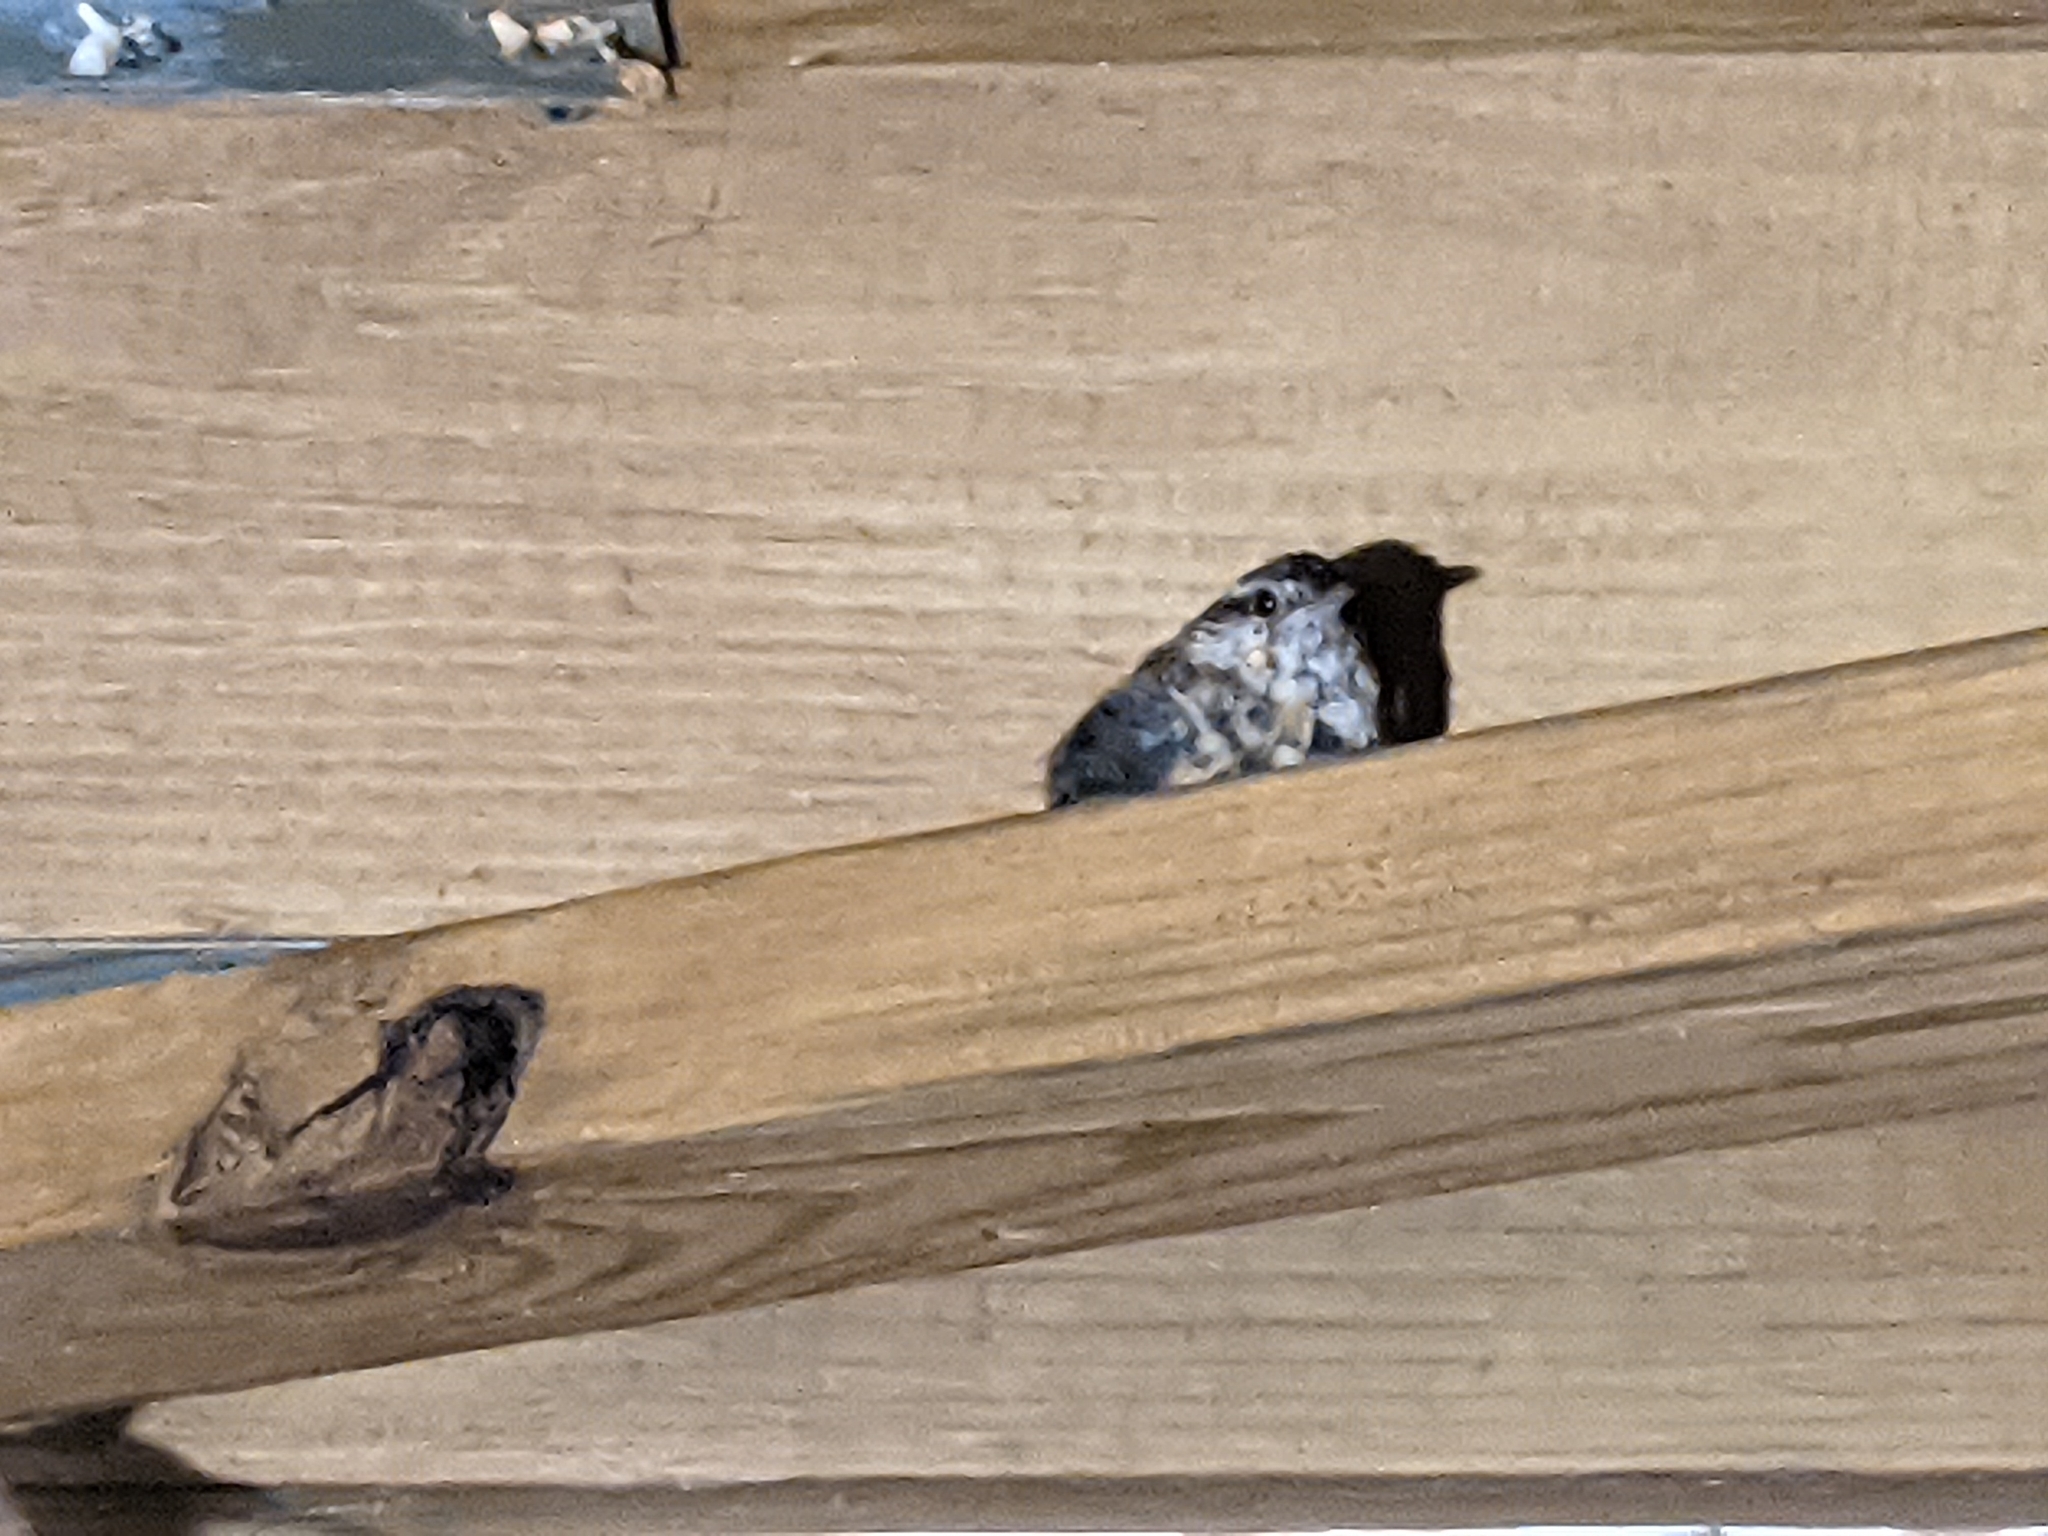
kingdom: Animalia
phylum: Chordata
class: Aves
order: Passeriformes
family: Troglodytidae
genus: Thryothorus
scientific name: Thryothorus ludovicianus
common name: Carolina wren
